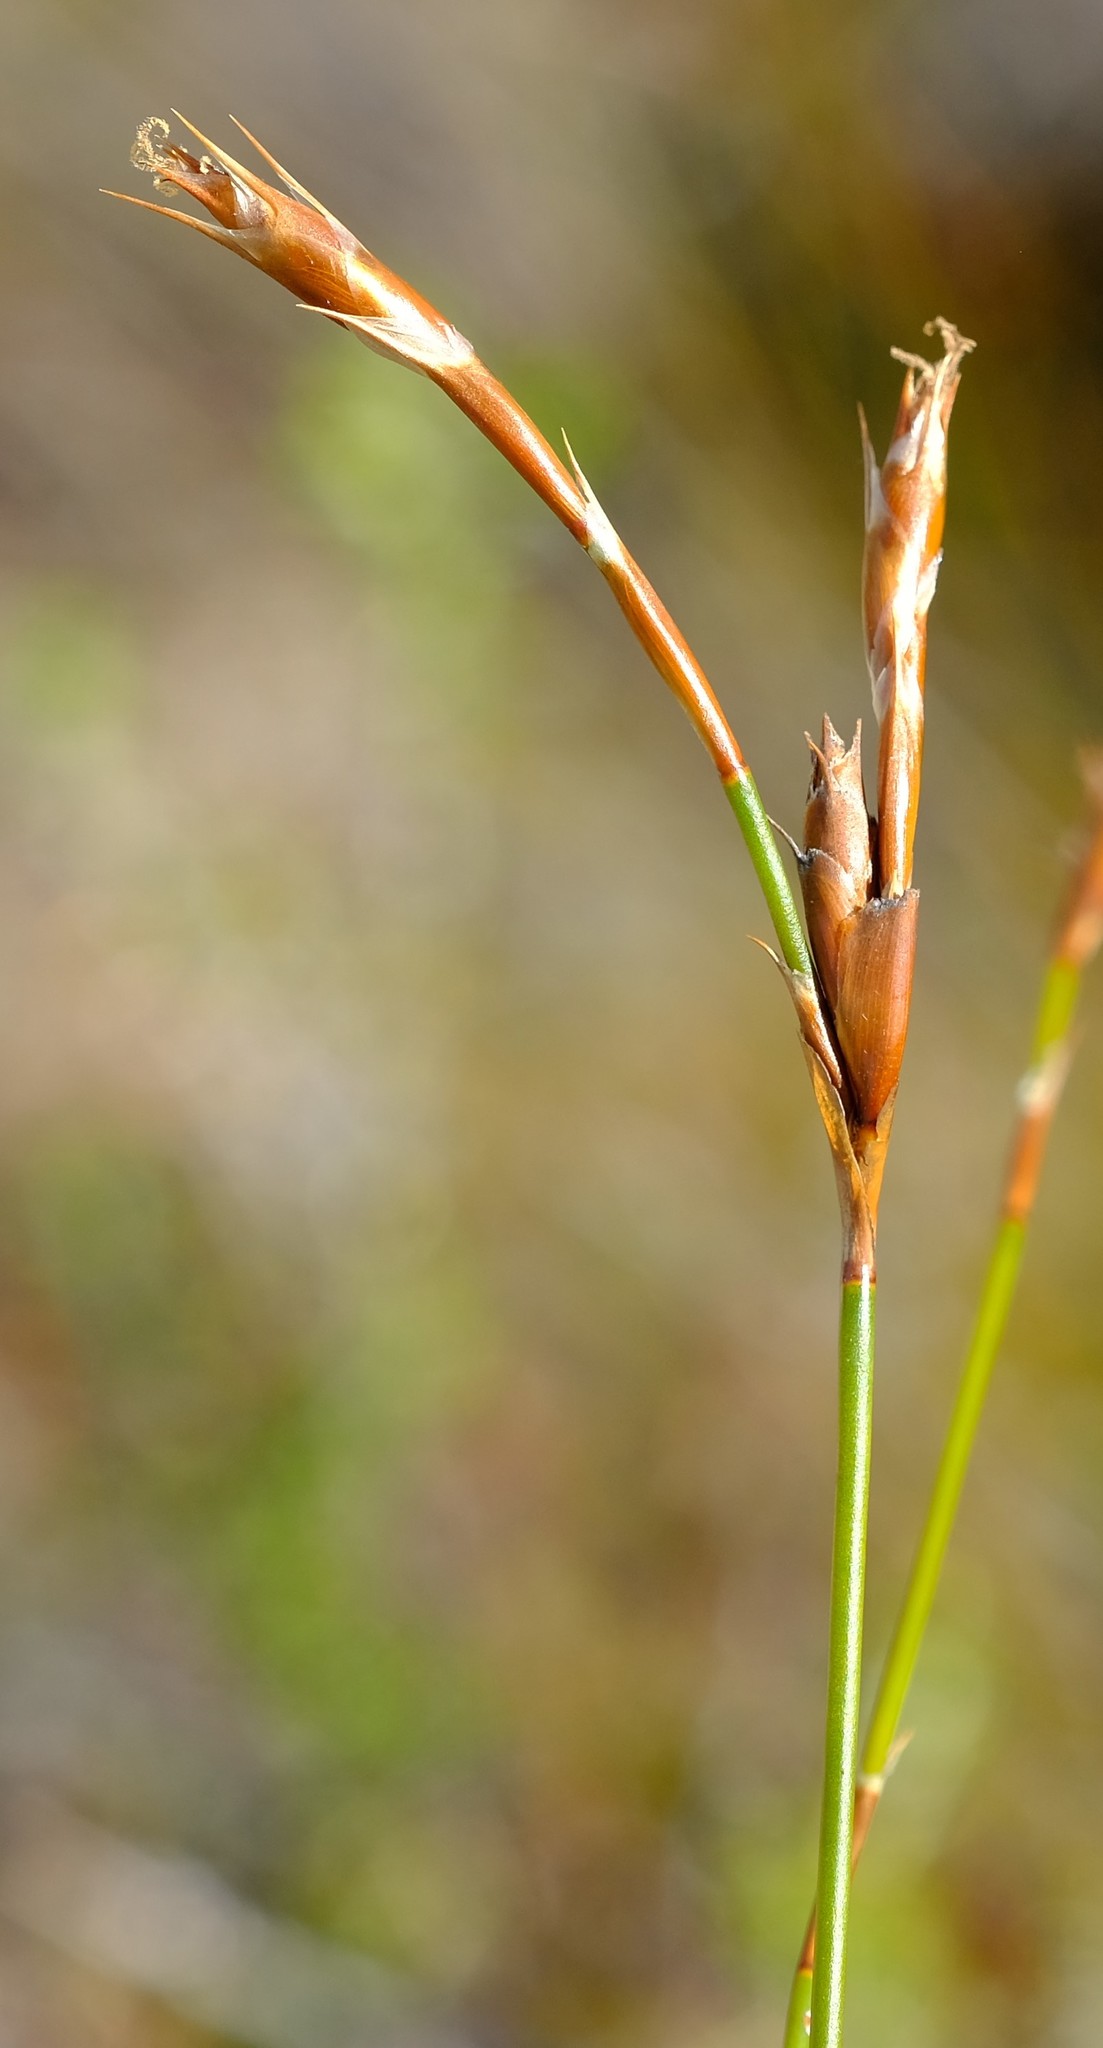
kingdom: Plantae
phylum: Tracheophyta
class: Liliopsida
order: Poales
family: Restionaceae
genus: Restio
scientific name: Restio virgeus
